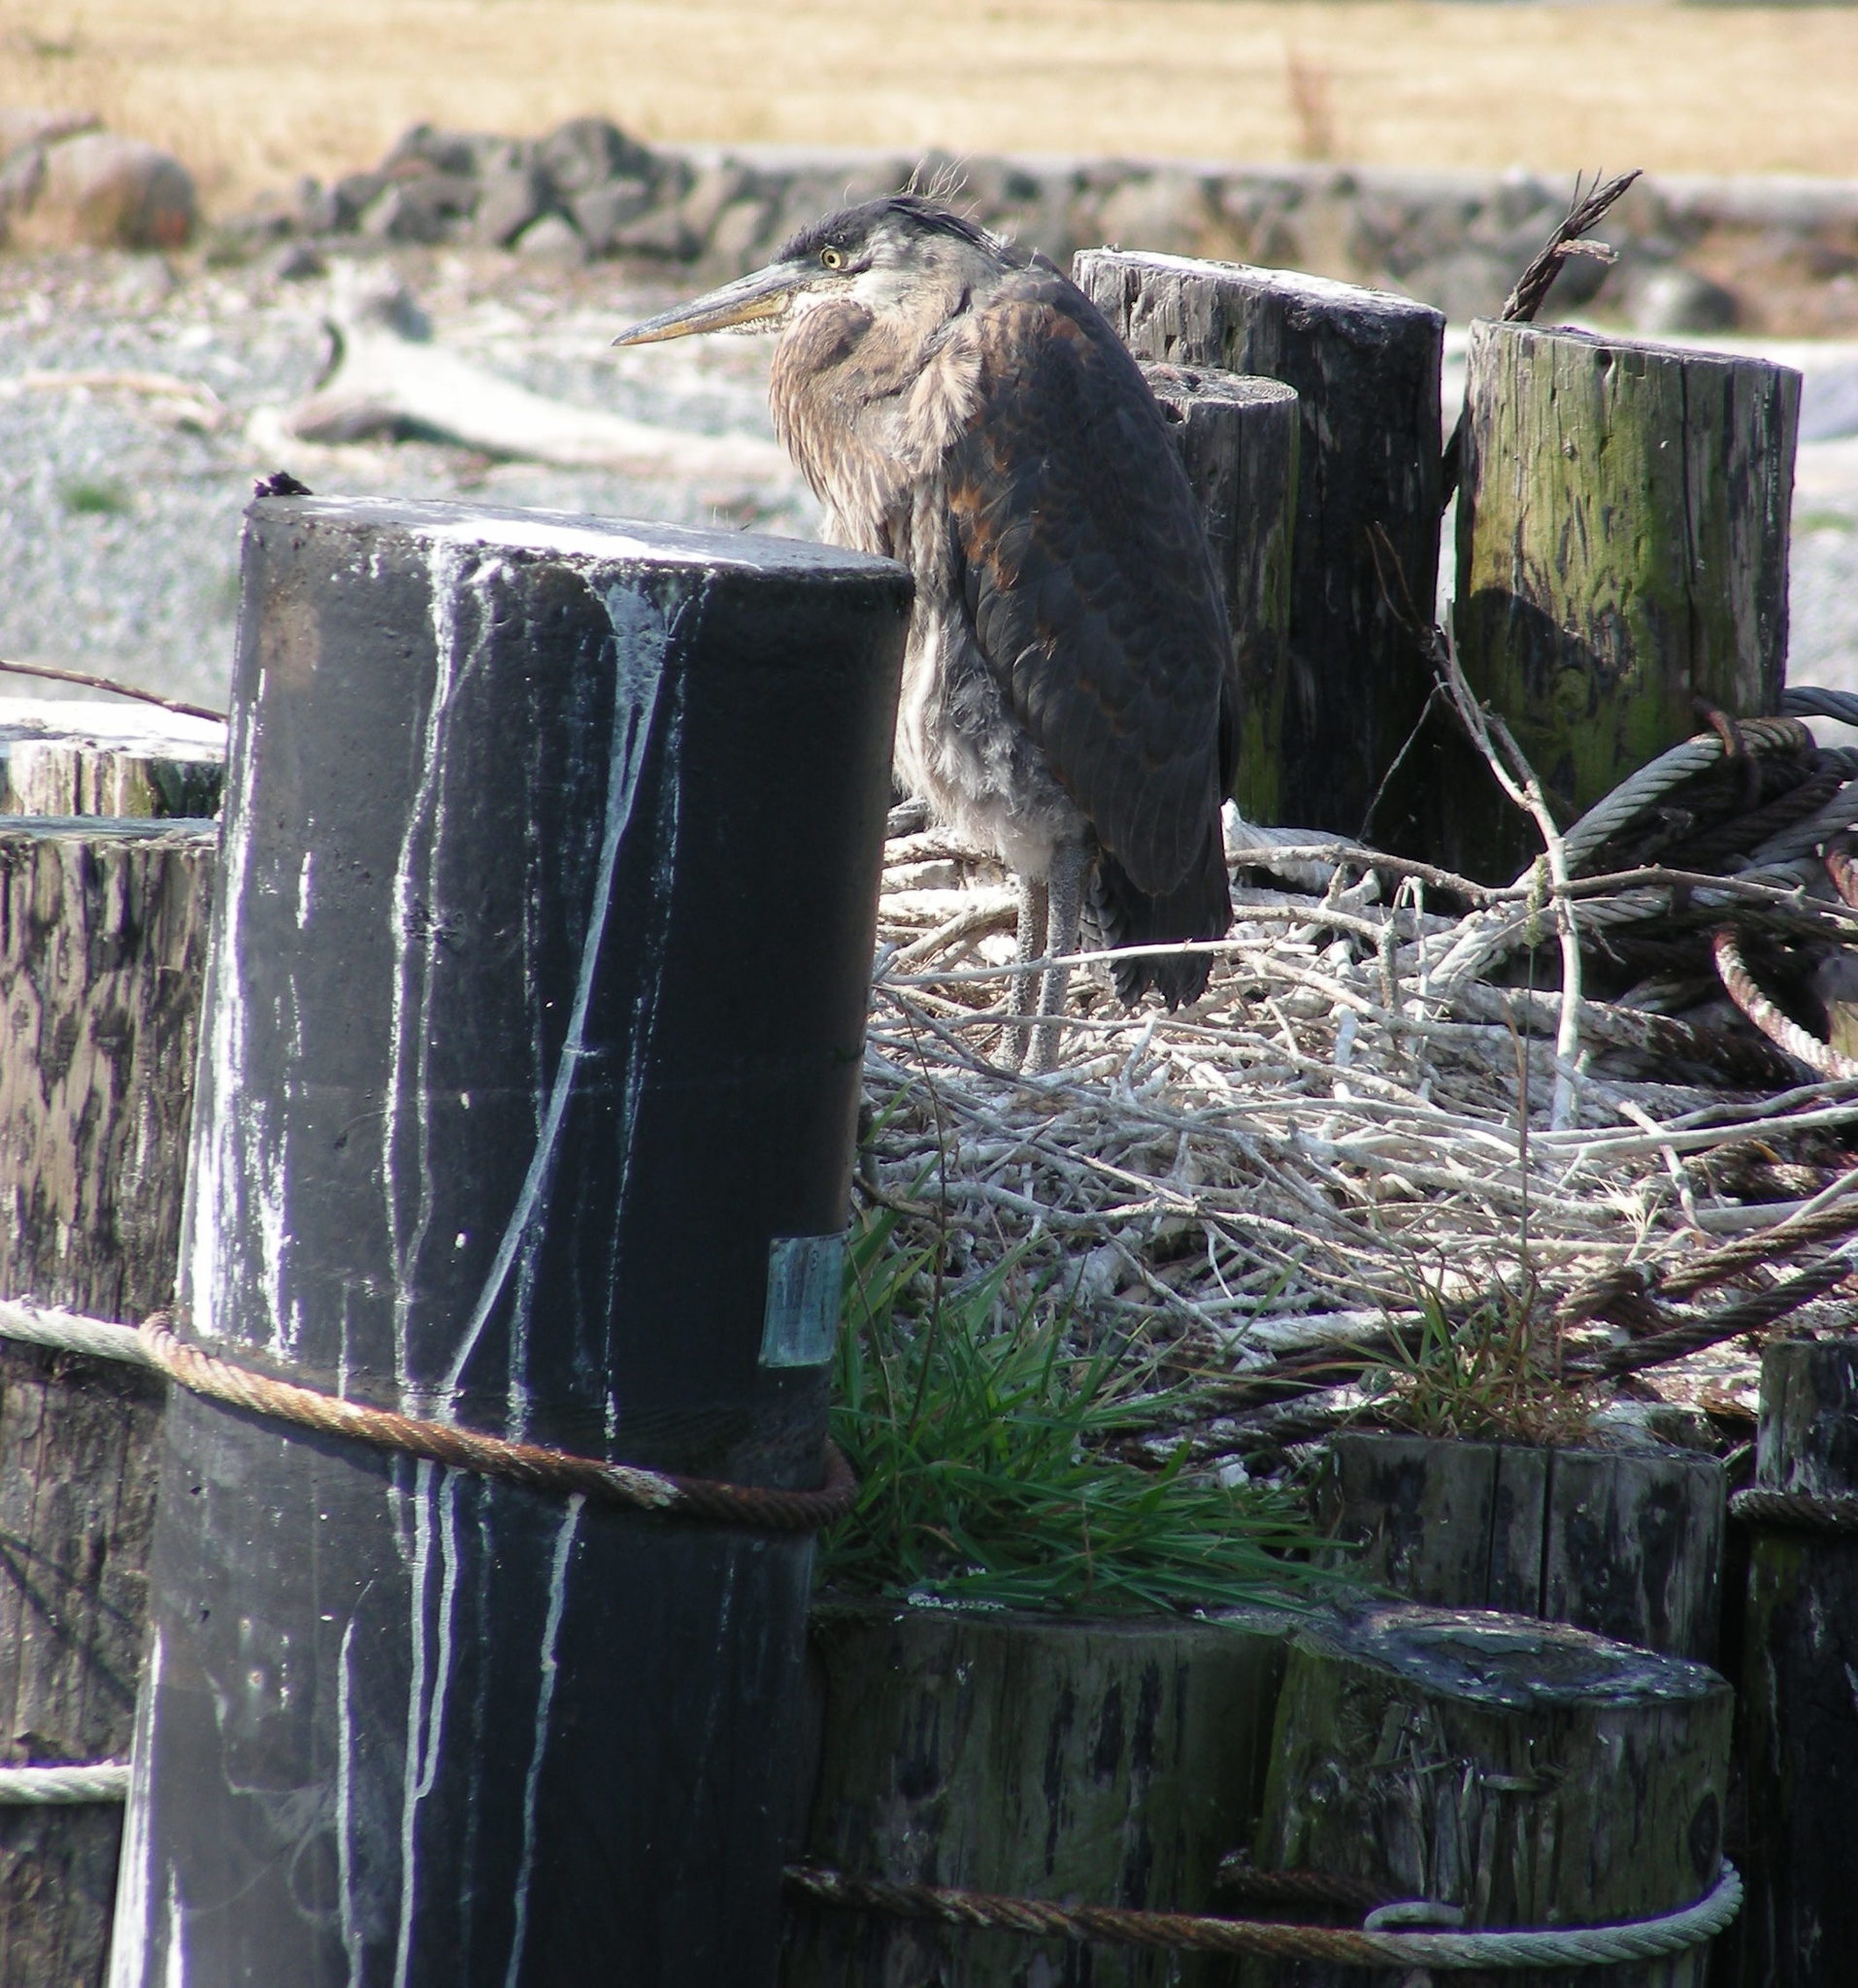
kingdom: Animalia
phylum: Chordata
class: Aves
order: Pelecaniformes
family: Ardeidae
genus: Ardea
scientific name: Ardea herodias
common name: Great blue heron
